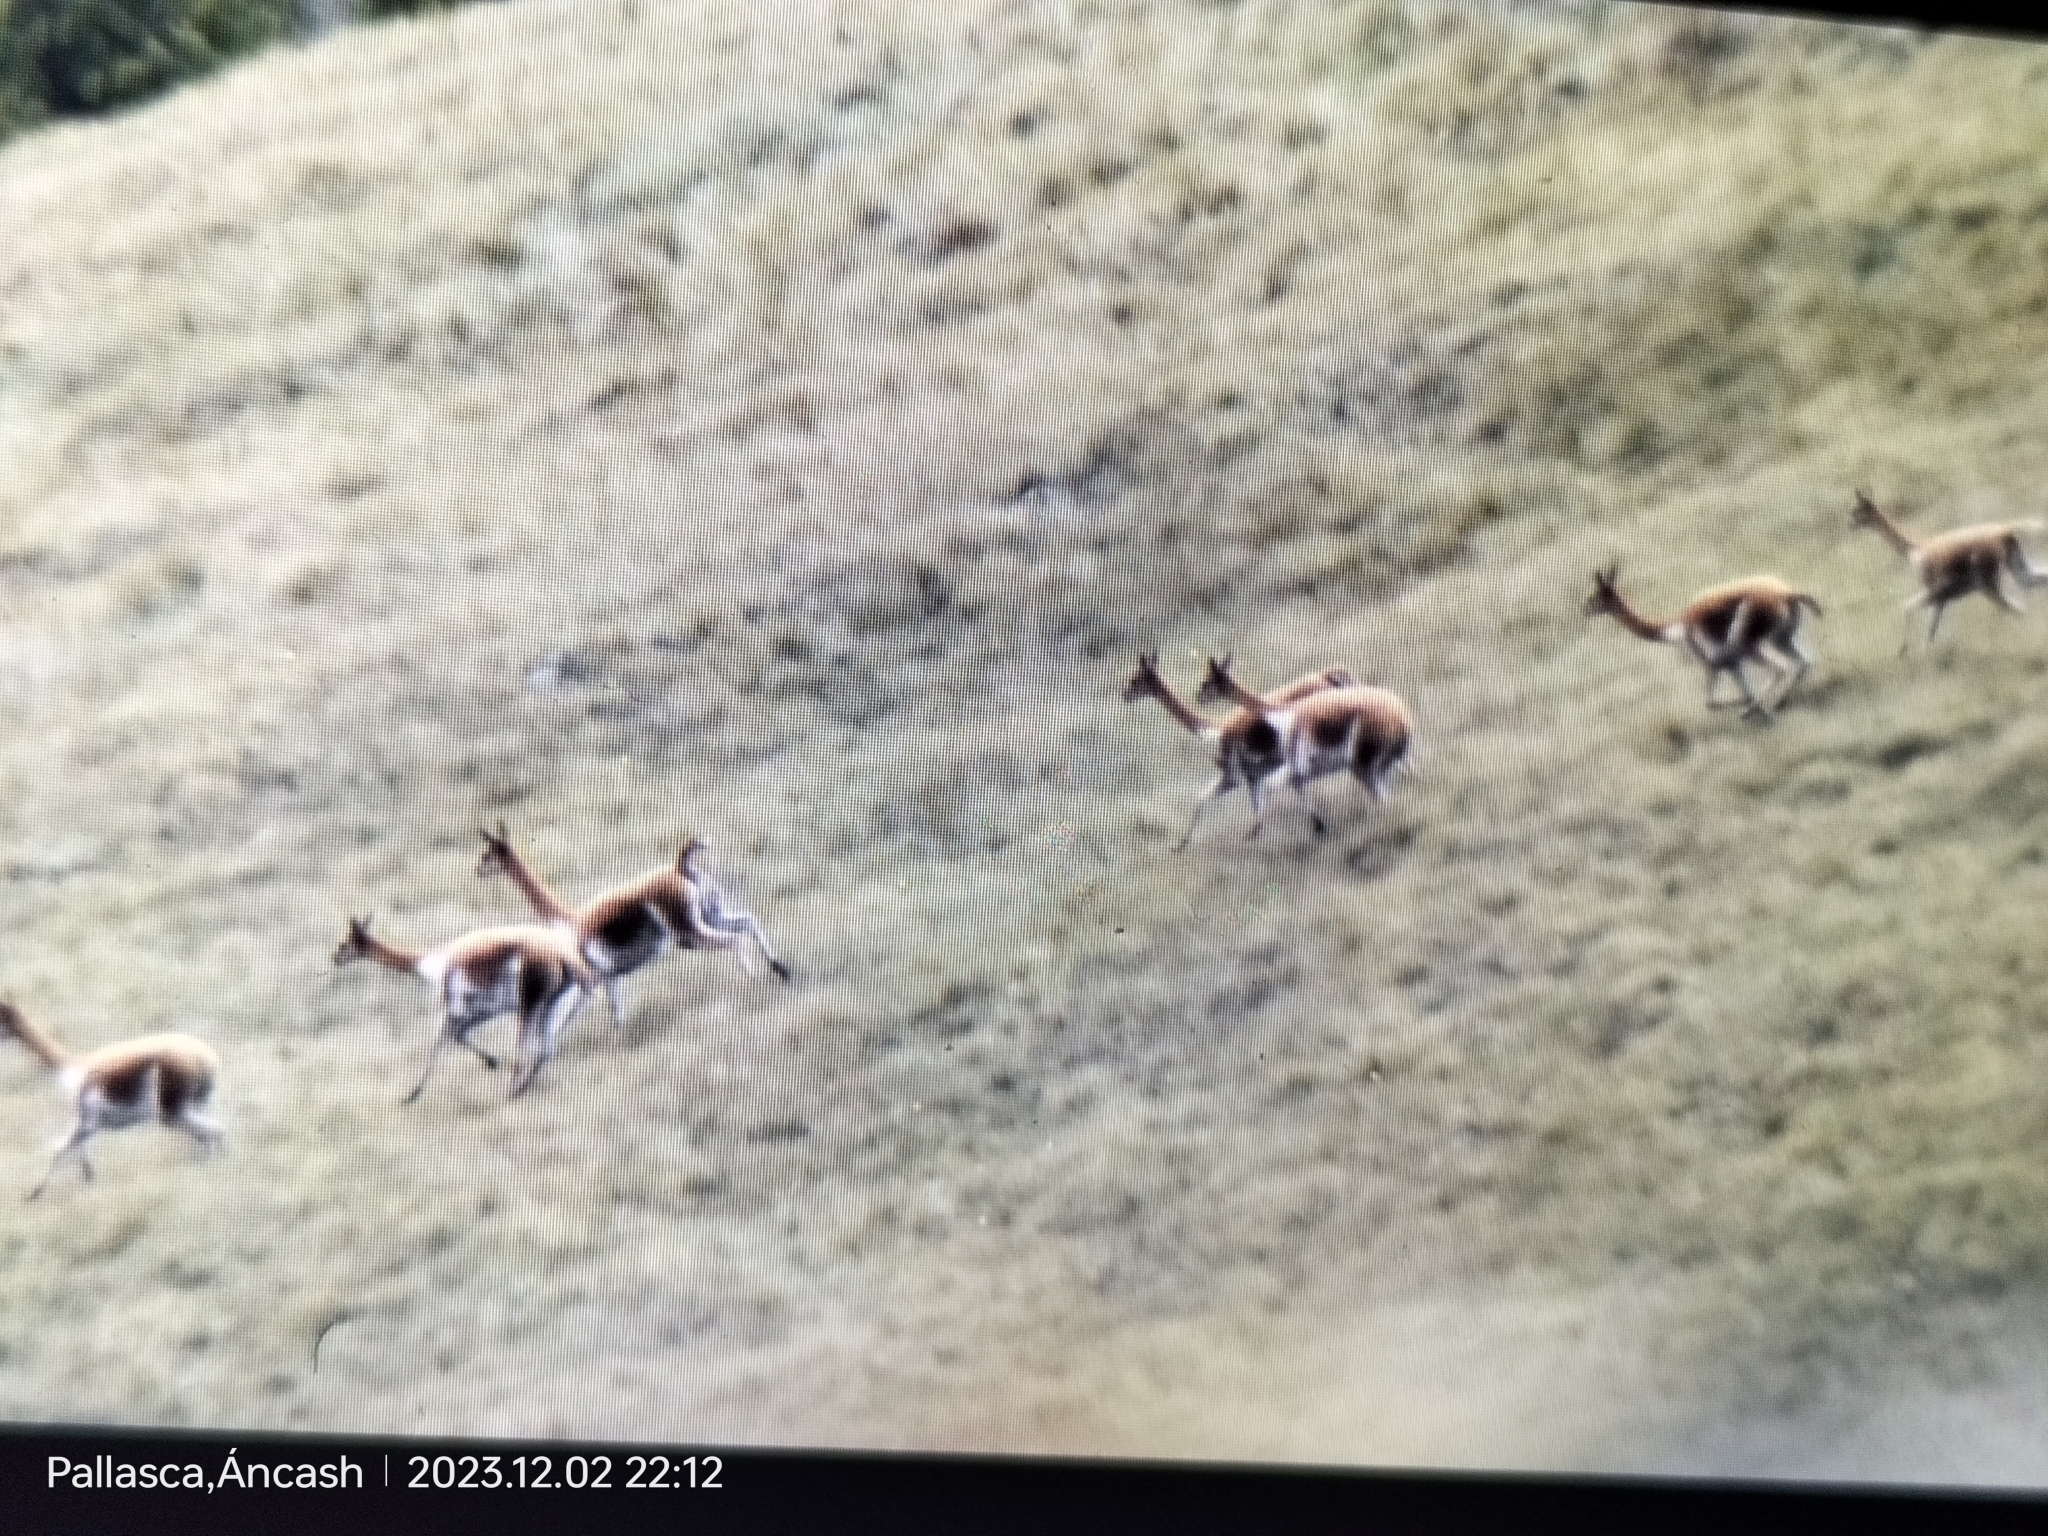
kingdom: Animalia
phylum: Chordata
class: Mammalia
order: Artiodactyla
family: Camelidae
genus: Vicugna
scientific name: Vicugna vicugna
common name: Vicugna
